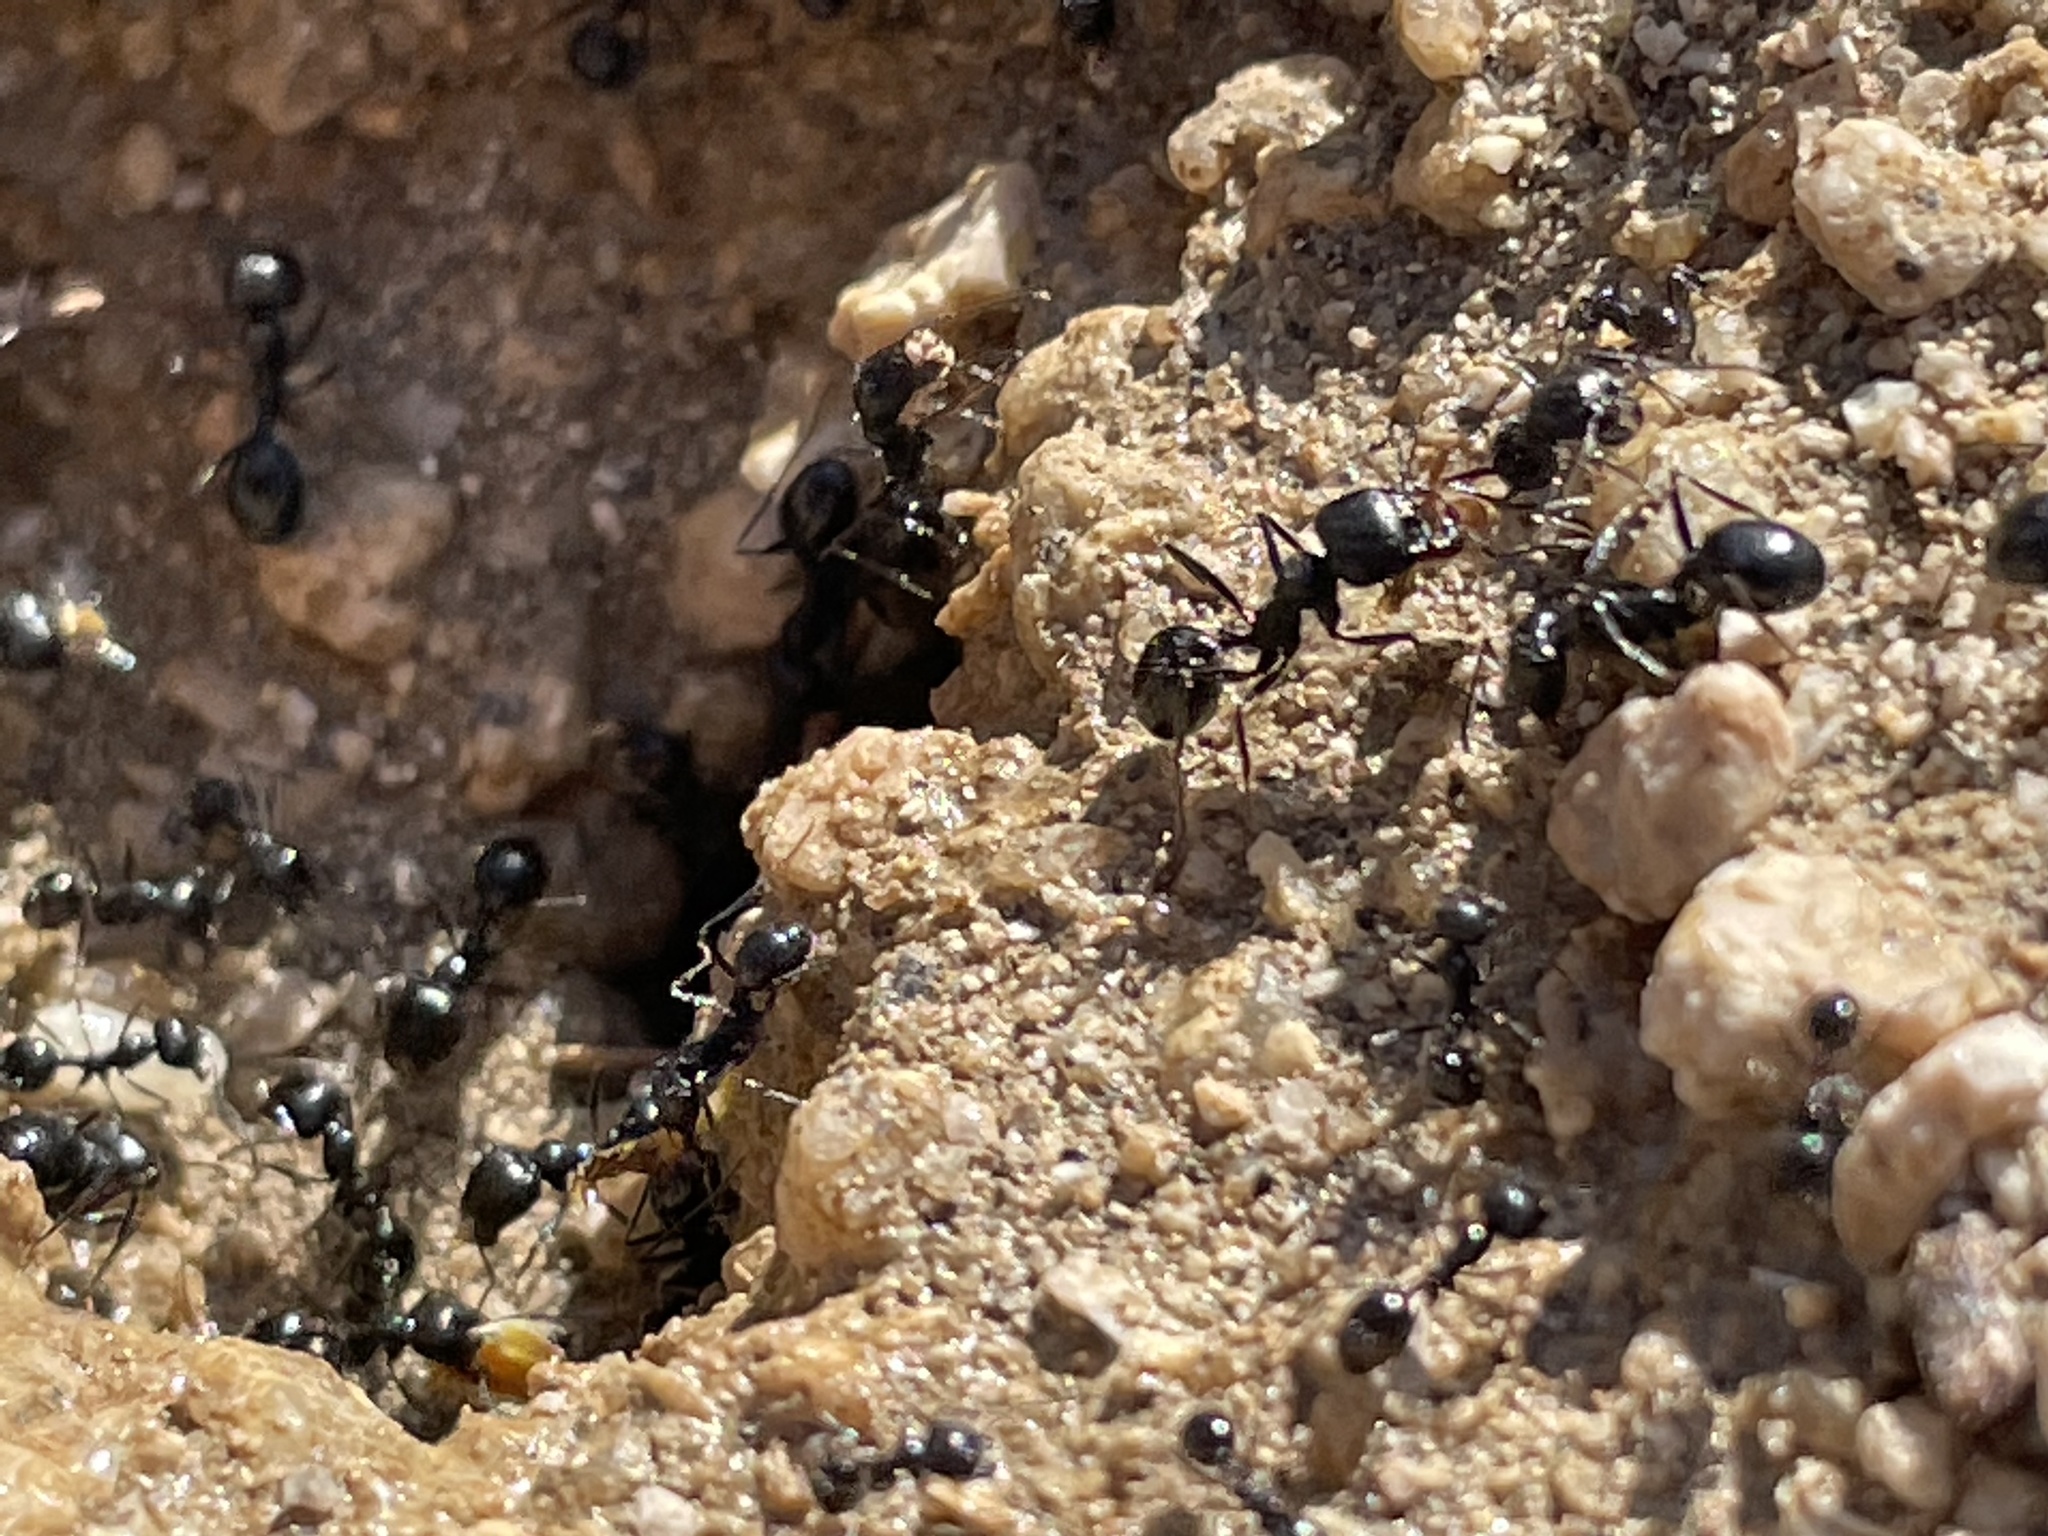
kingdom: Animalia
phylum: Arthropoda
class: Insecta
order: Hymenoptera
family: Formicidae
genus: Messor
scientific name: Messor pergandei
